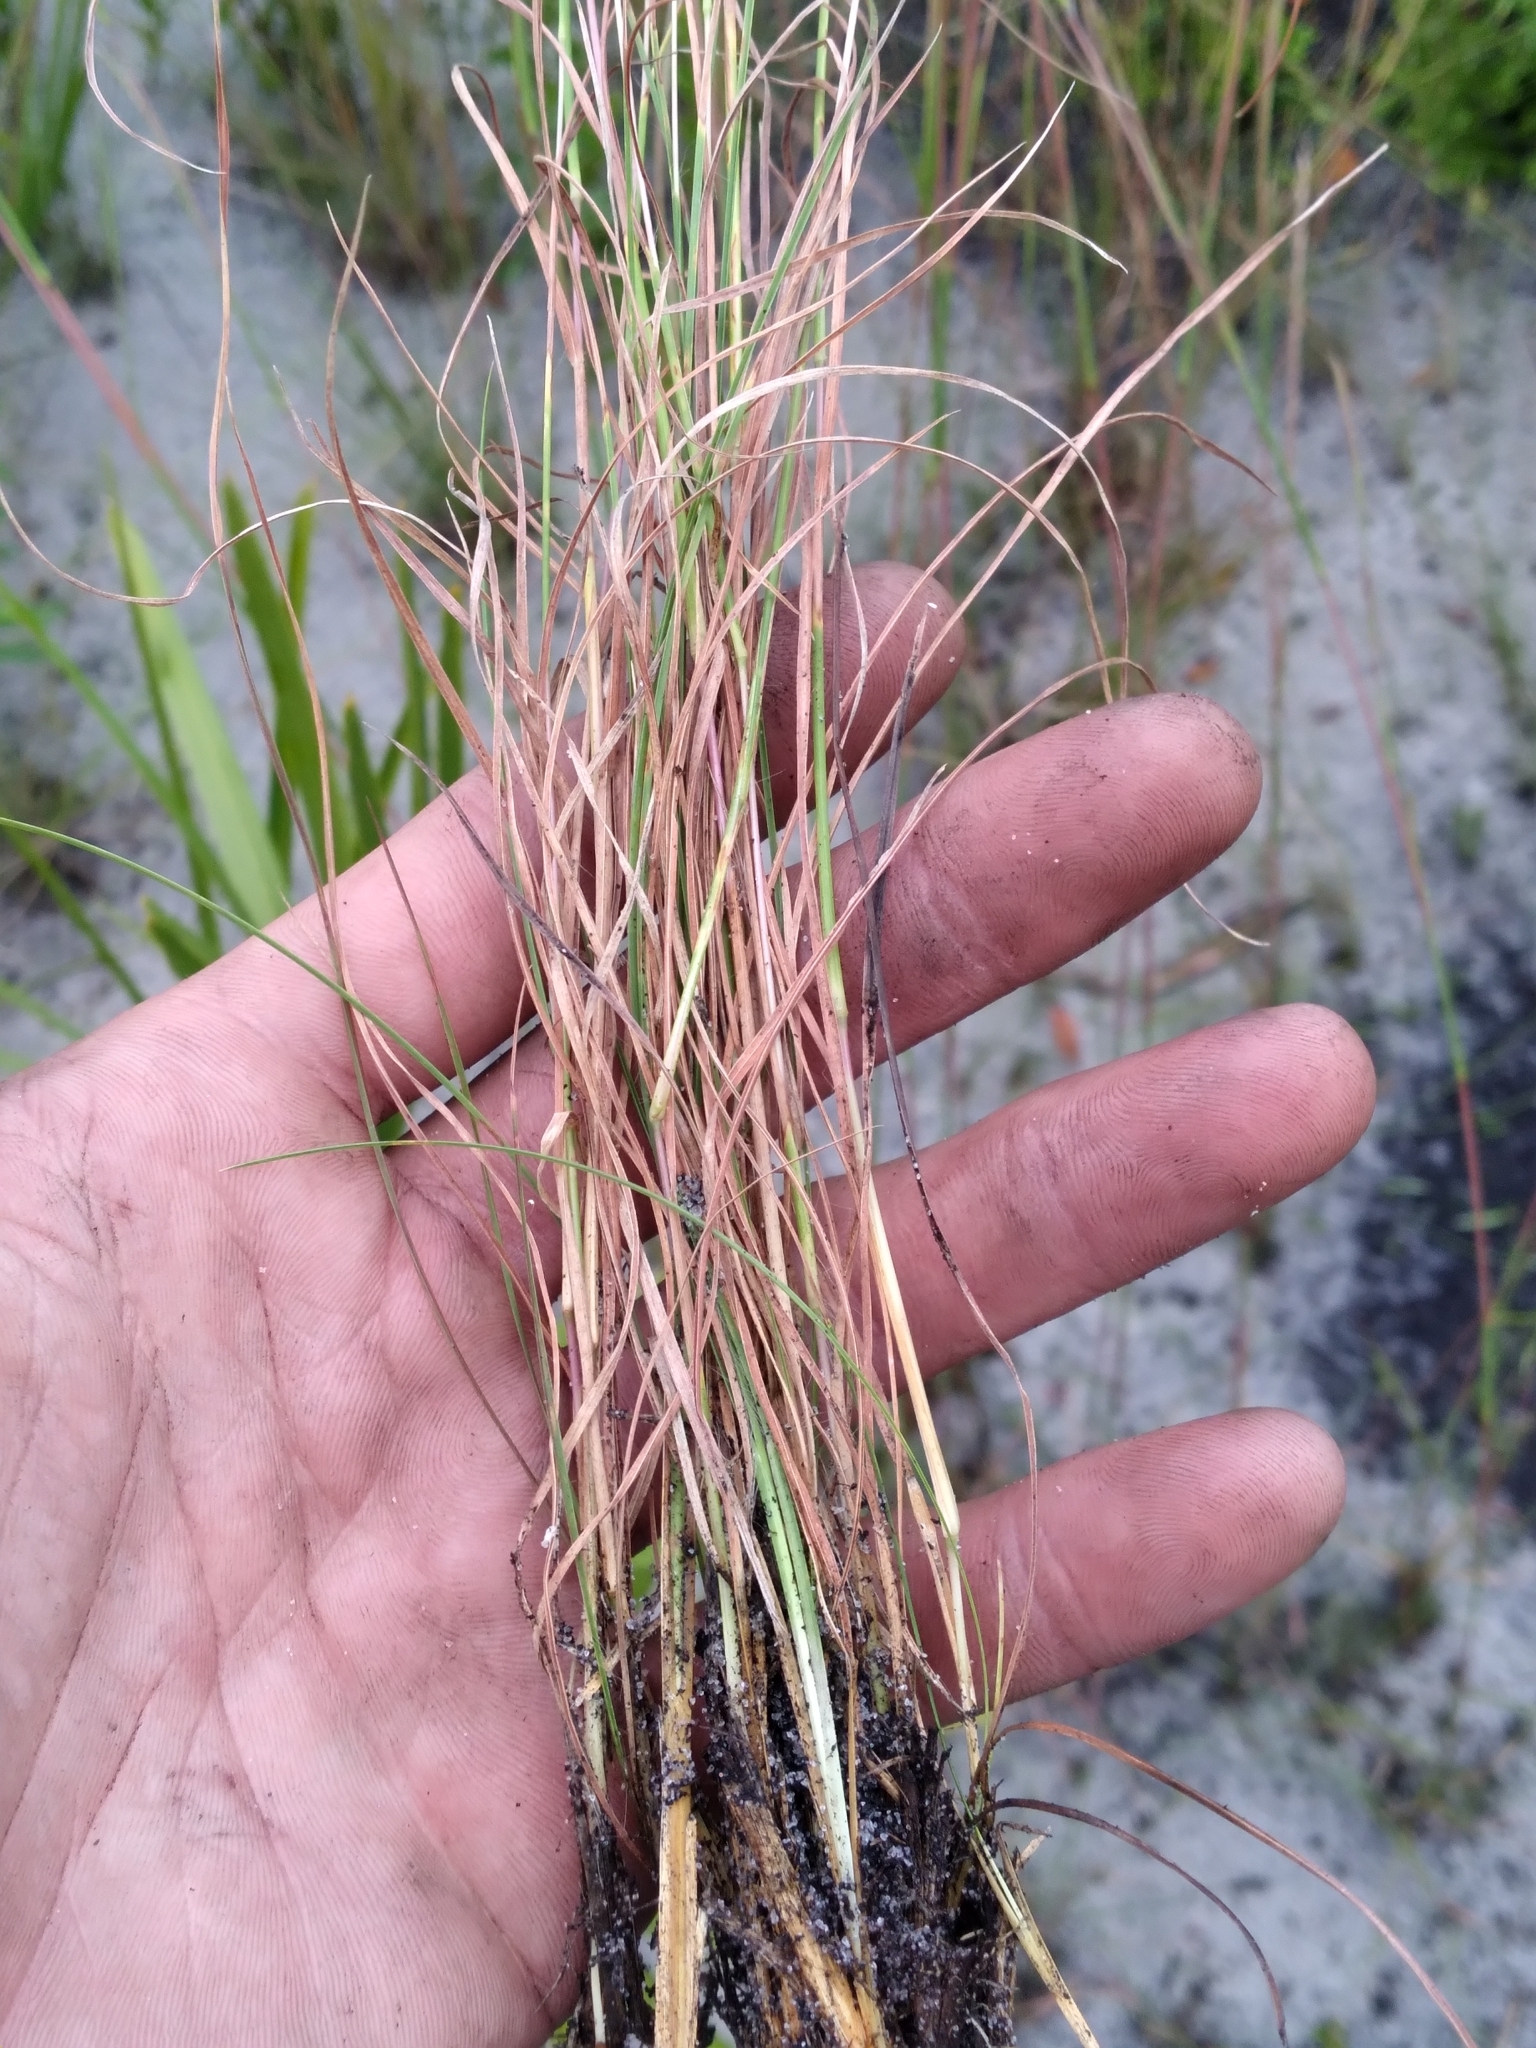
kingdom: Plantae
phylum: Tracheophyta
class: Liliopsida
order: Poales
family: Poaceae
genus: Andropogon
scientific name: Andropogon gyrans
